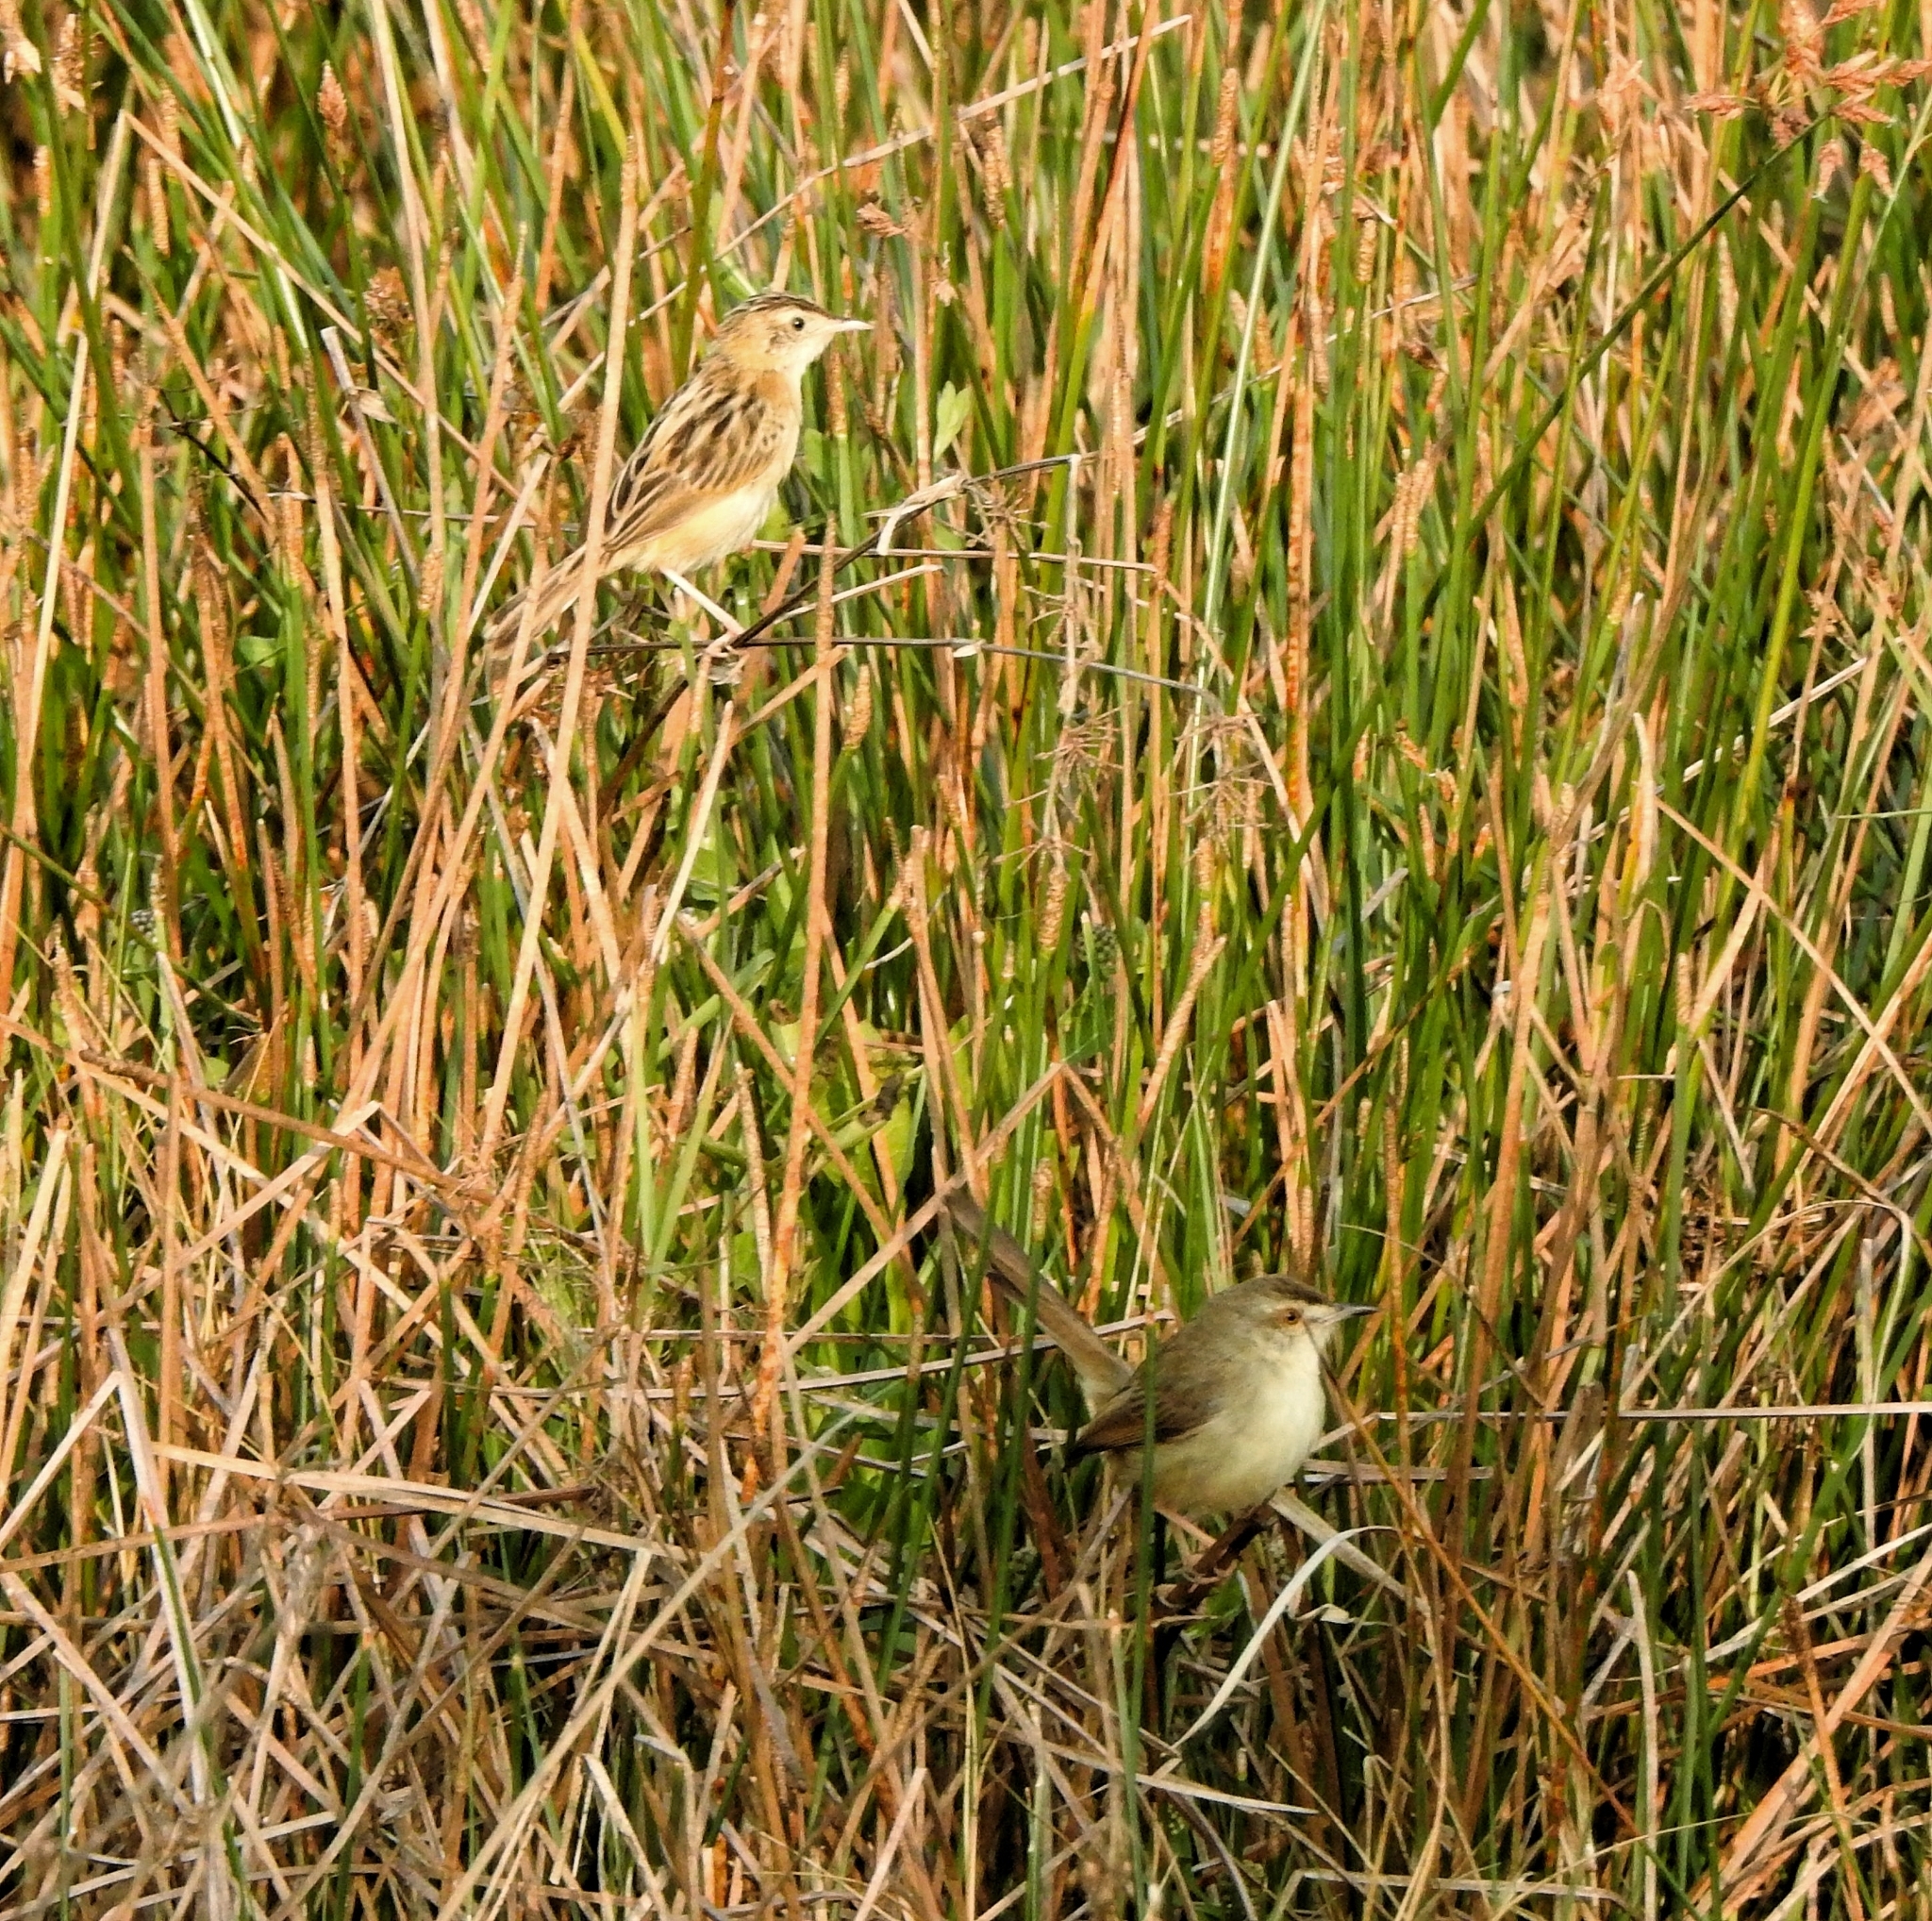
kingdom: Animalia
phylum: Chordata
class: Aves
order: Passeriformes
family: Cisticolidae
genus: Cisticola
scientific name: Cisticola juncidis
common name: Zitting cisticola
